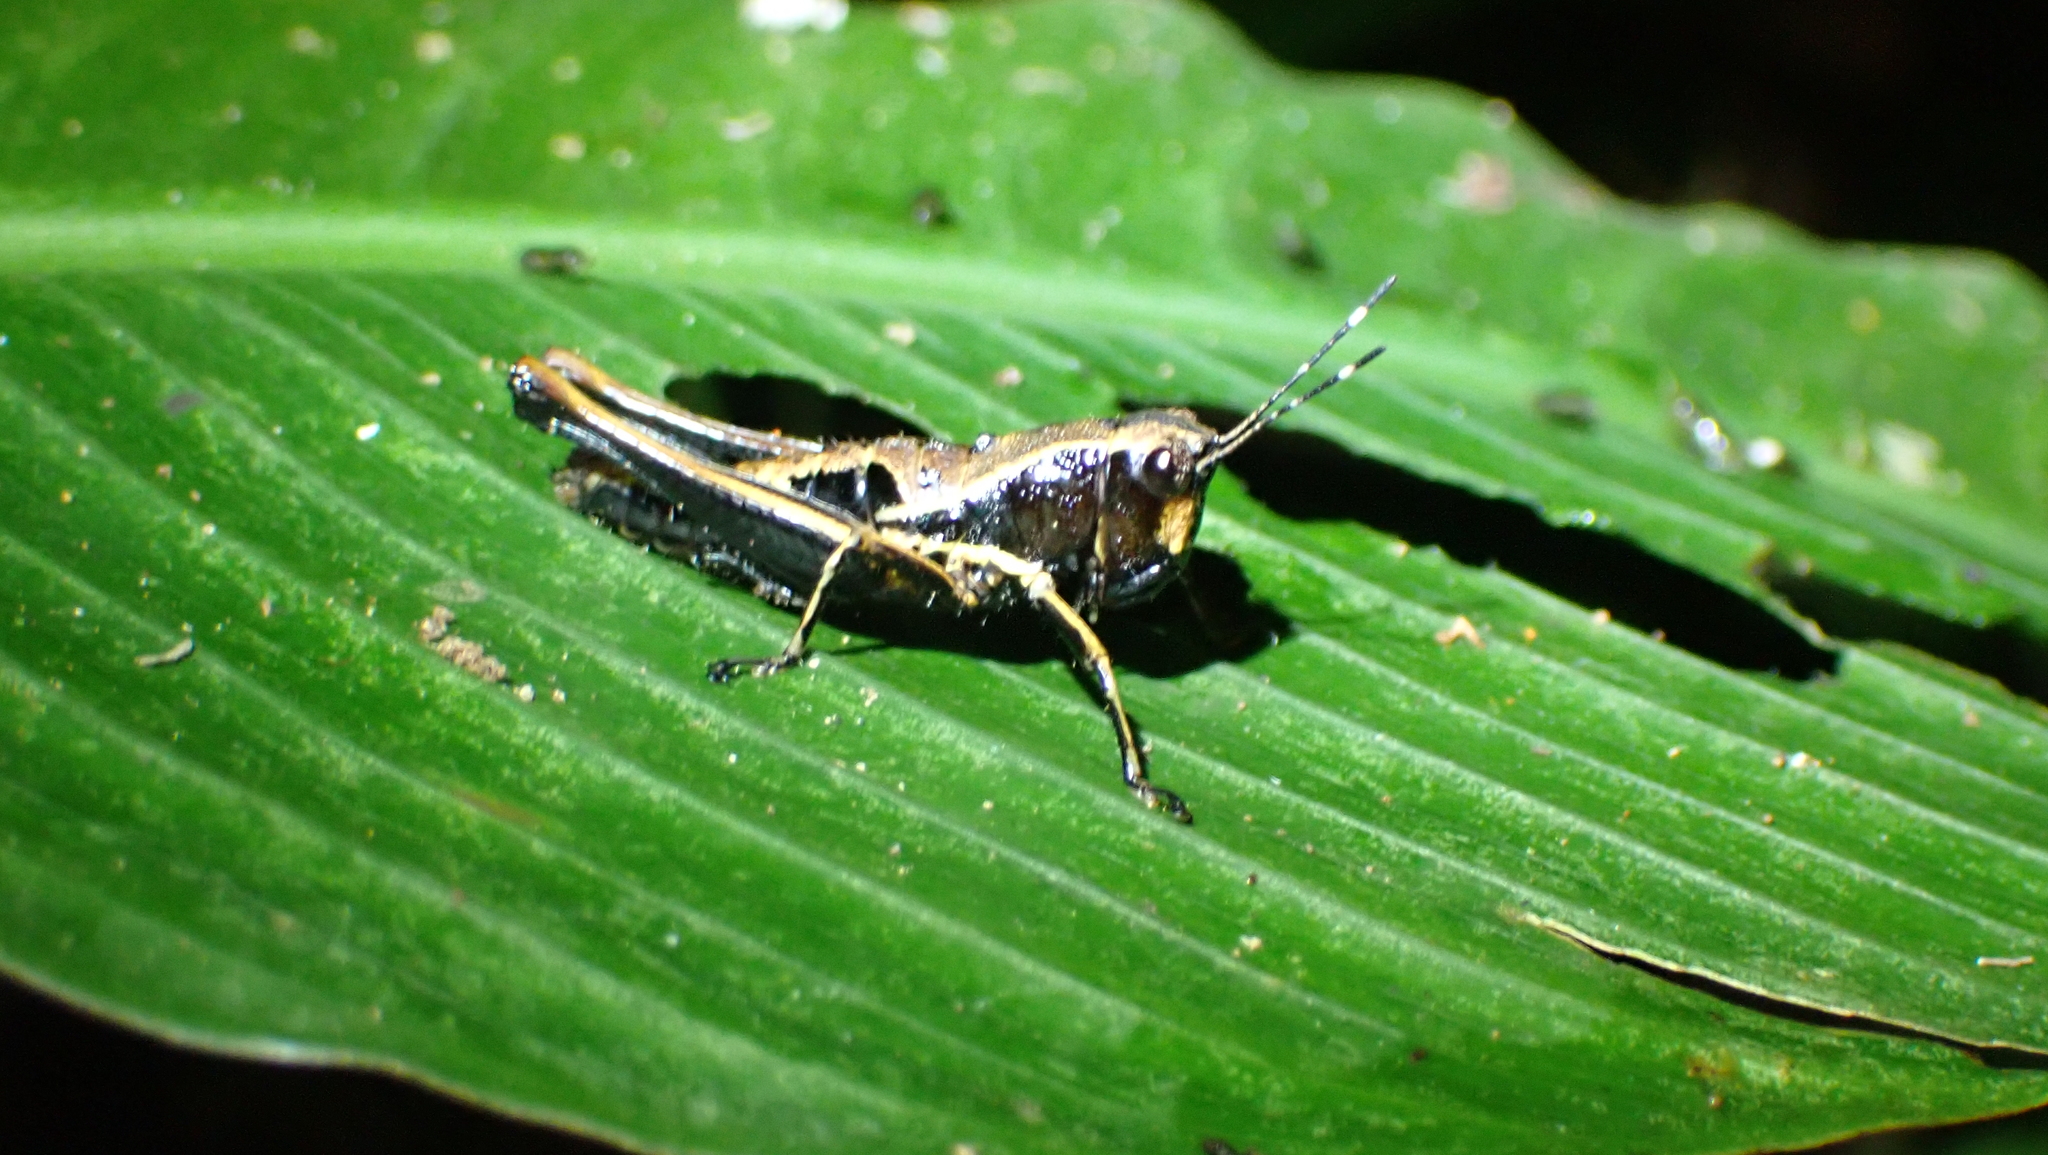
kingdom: Animalia
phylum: Arthropoda
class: Insecta
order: Orthoptera
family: Acrididae
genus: Microtylopteryx
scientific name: Microtylopteryx hebardi
